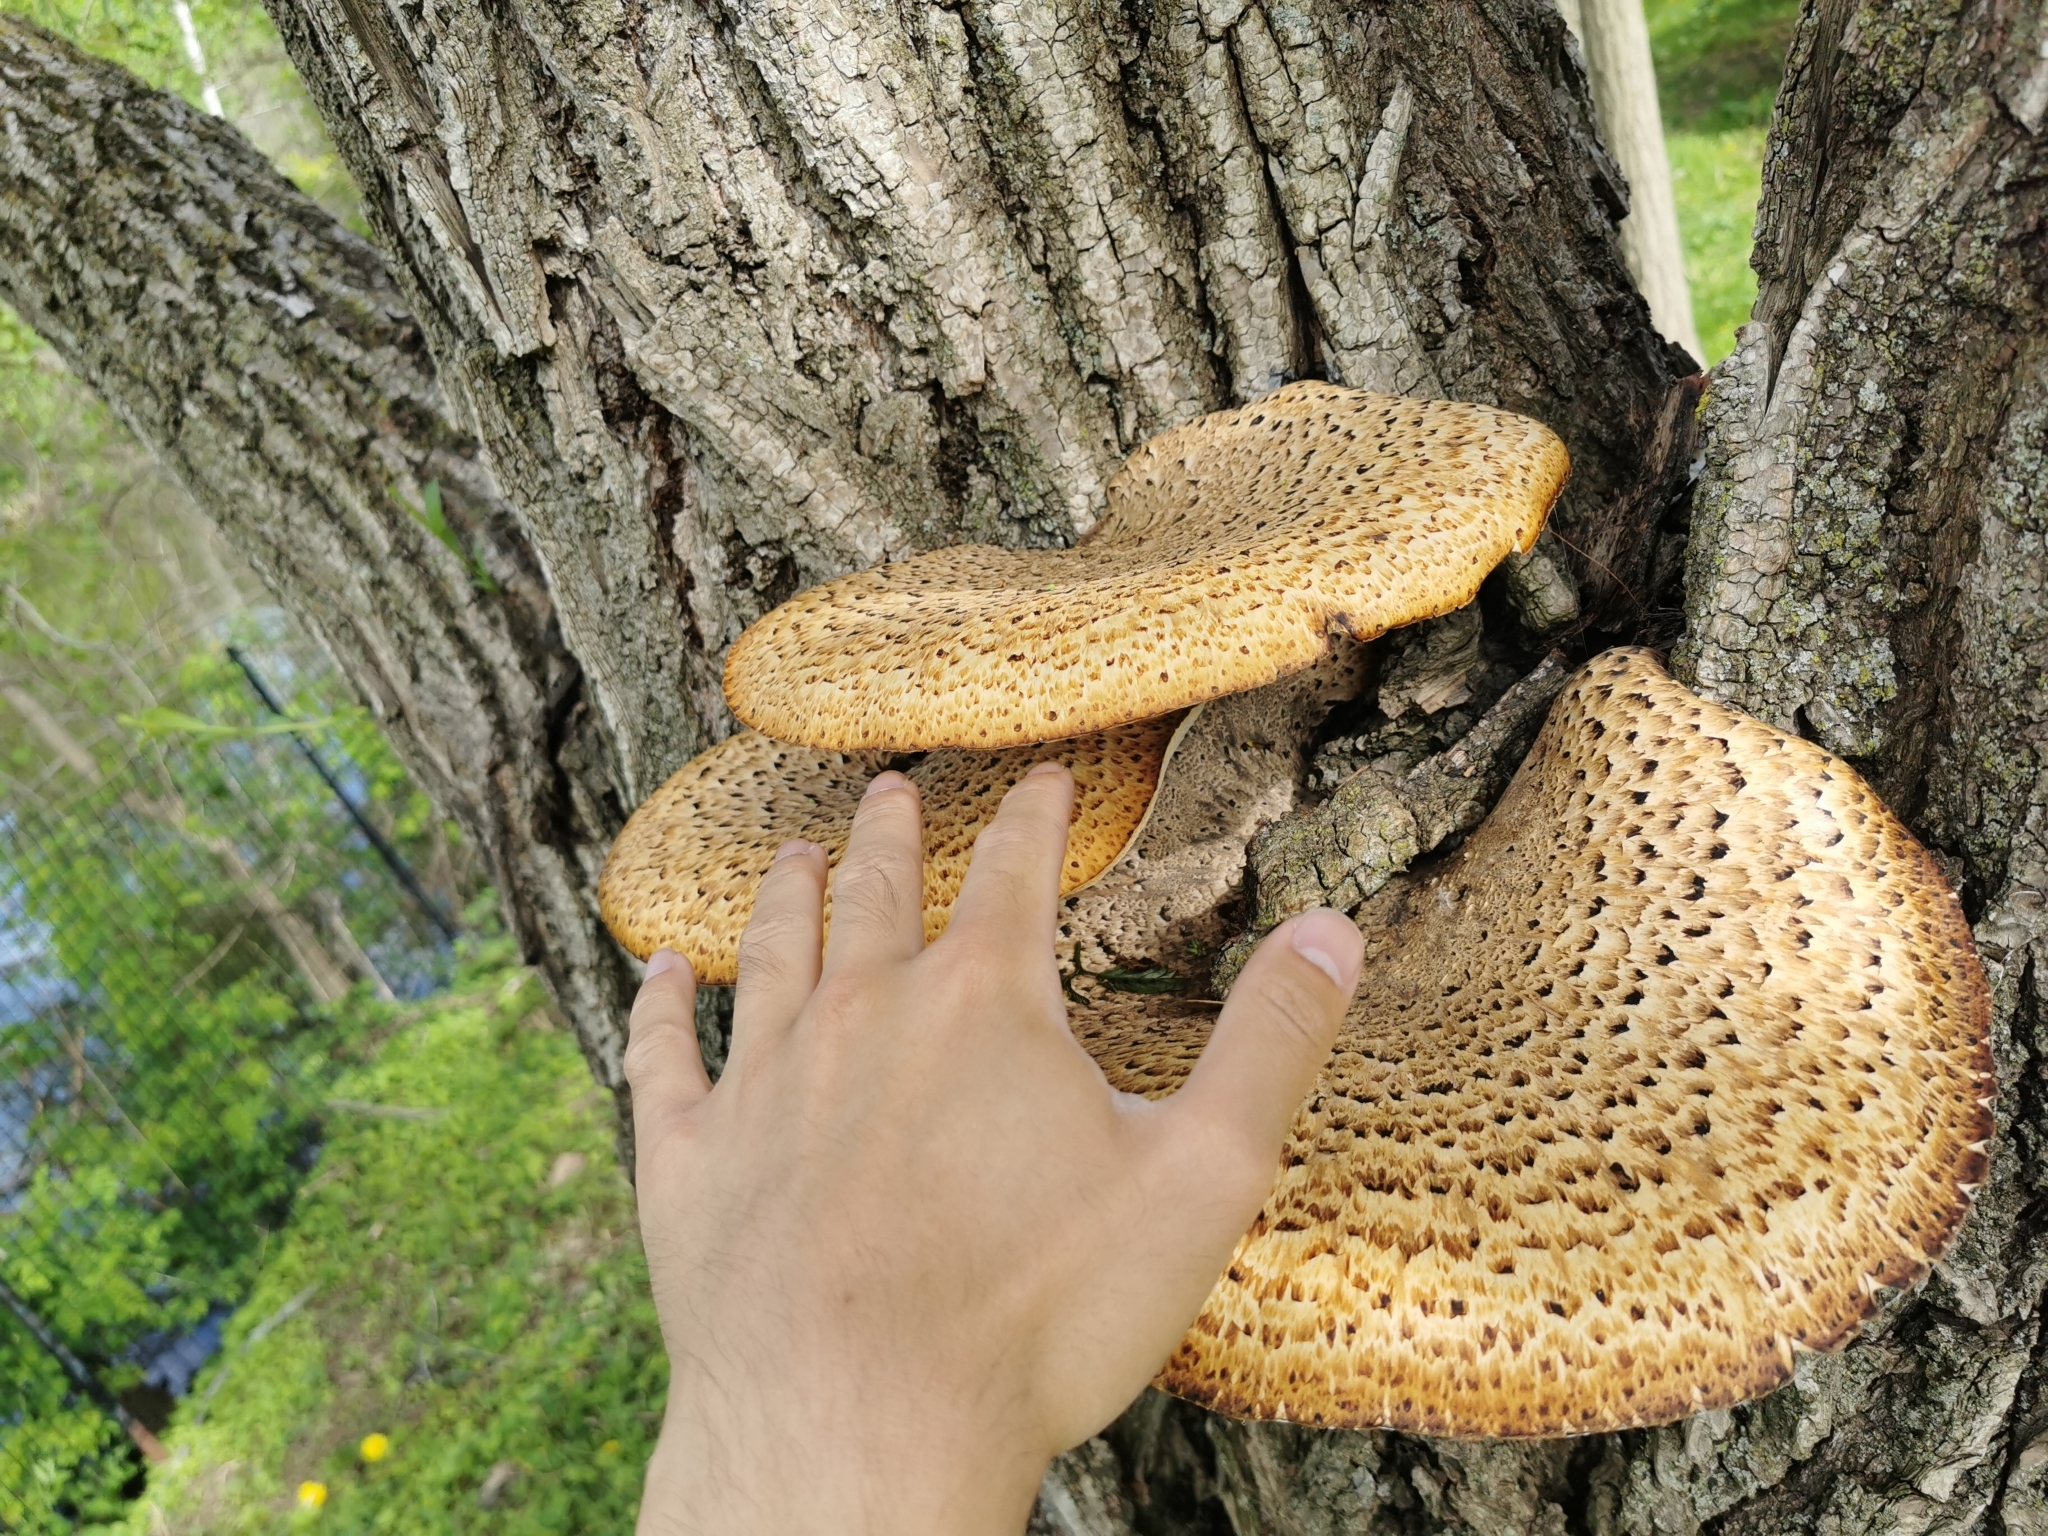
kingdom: Fungi
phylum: Basidiomycota
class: Agaricomycetes
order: Polyporales
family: Polyporaceae
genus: Cerioporus
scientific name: Cerioporus squamosus
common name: Dryad's saddle
